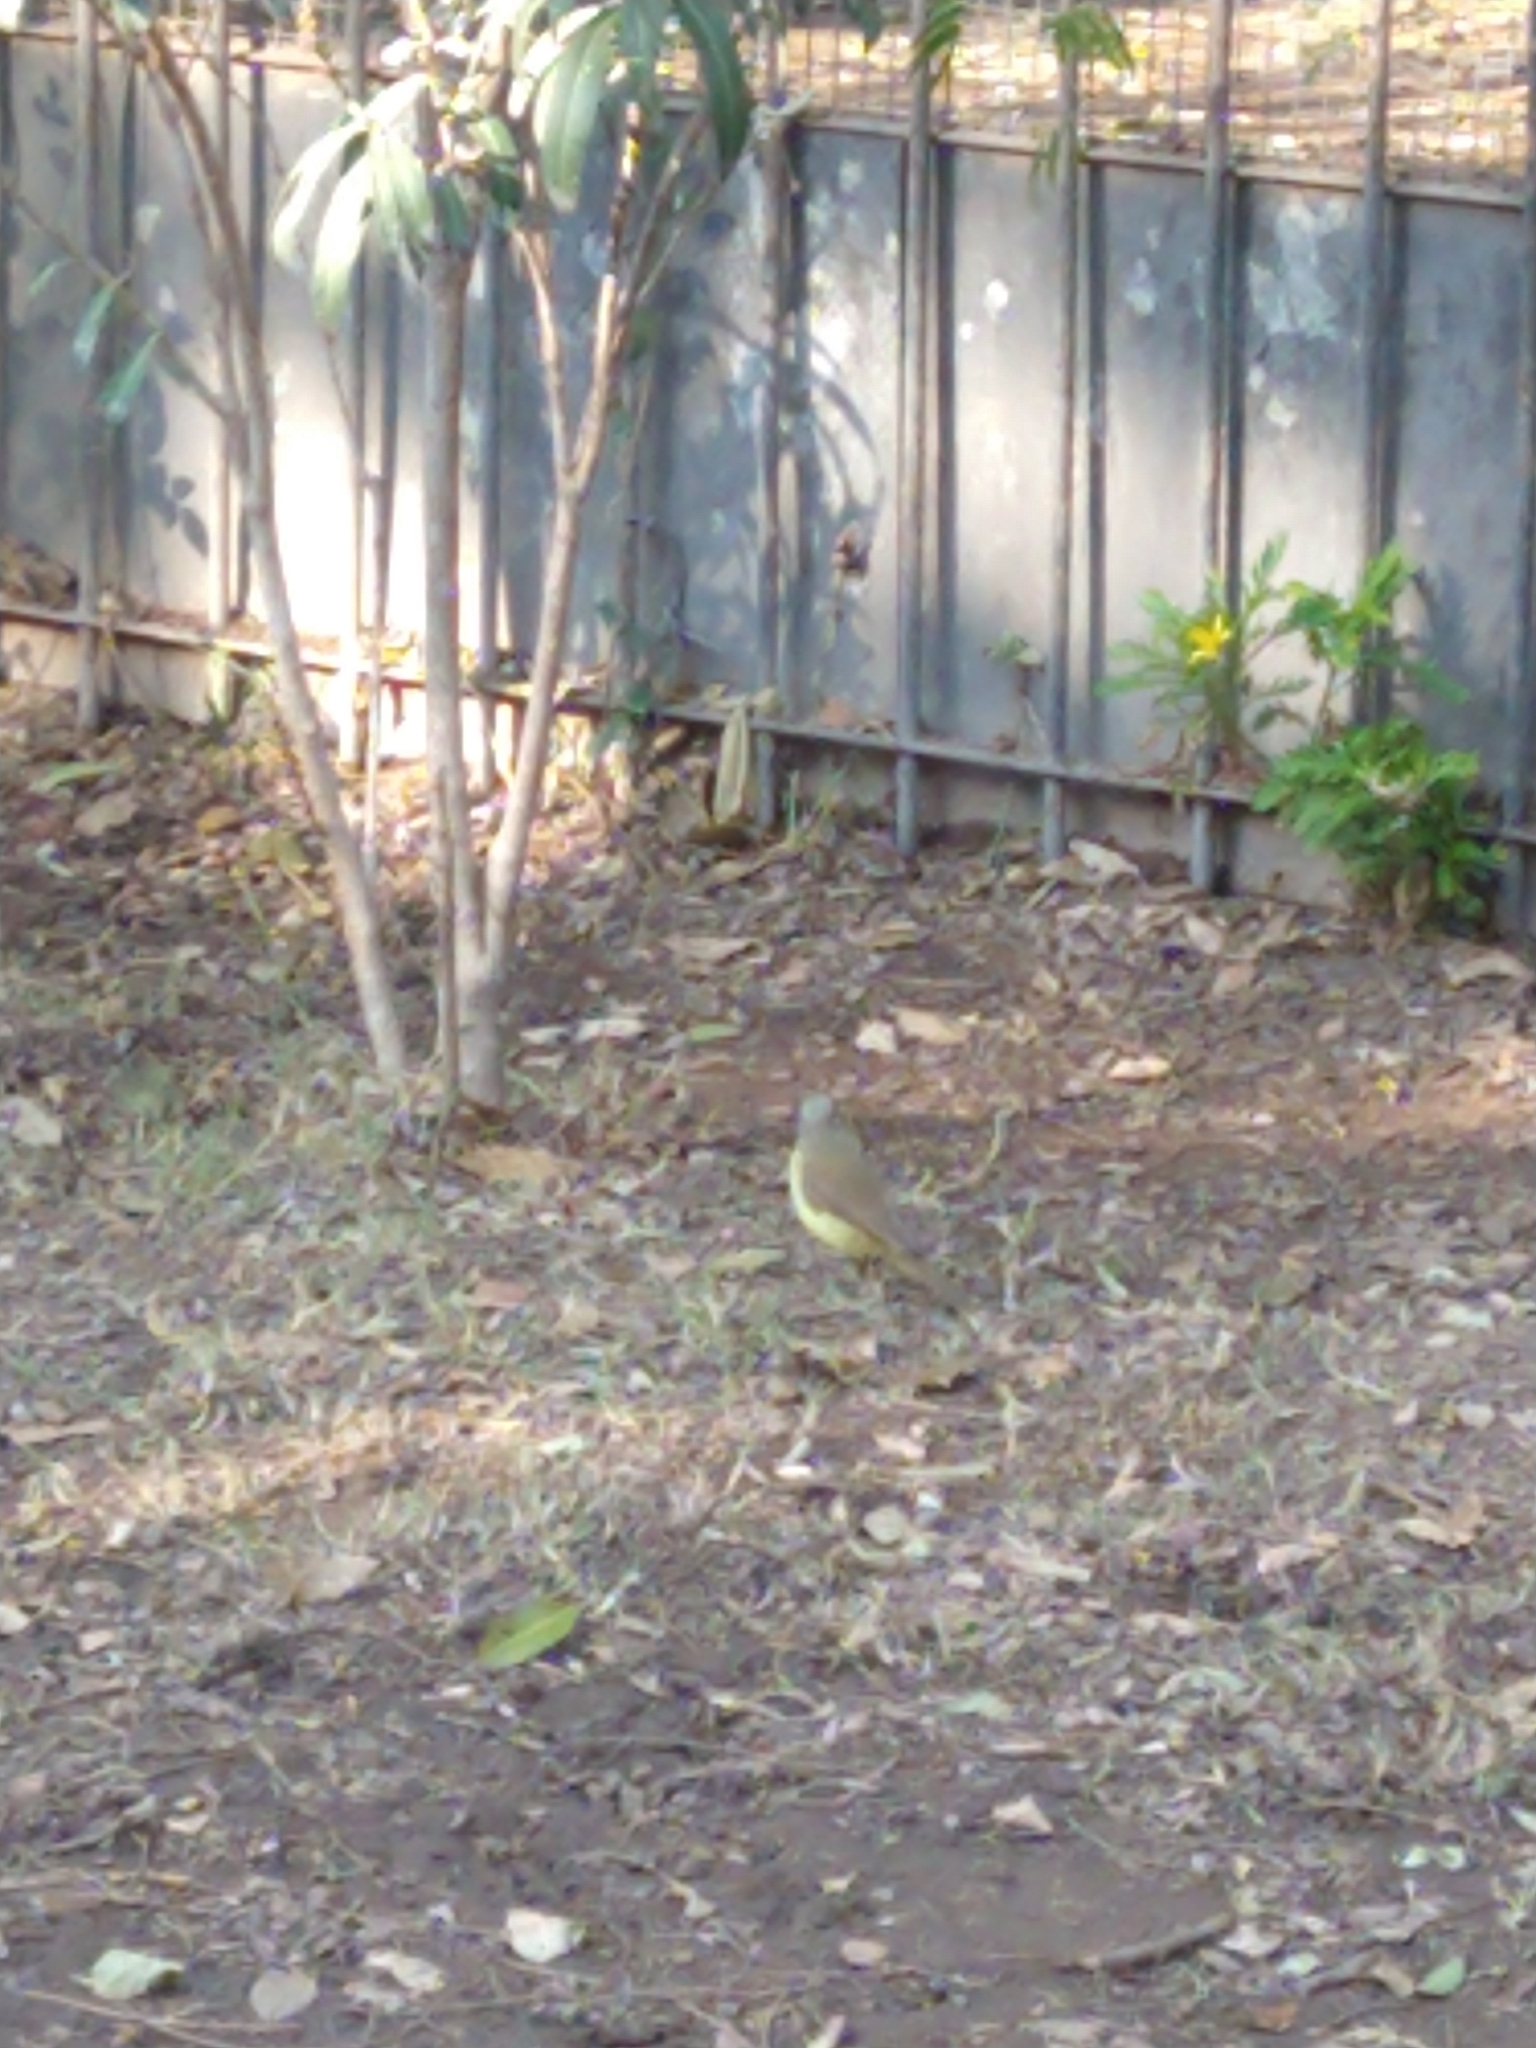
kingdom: Animalia
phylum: Chordata
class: Aves
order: Passeriformes
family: Tyrannidae
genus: Machetornis
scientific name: Machetornis rixosa
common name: Cattle tyrant
